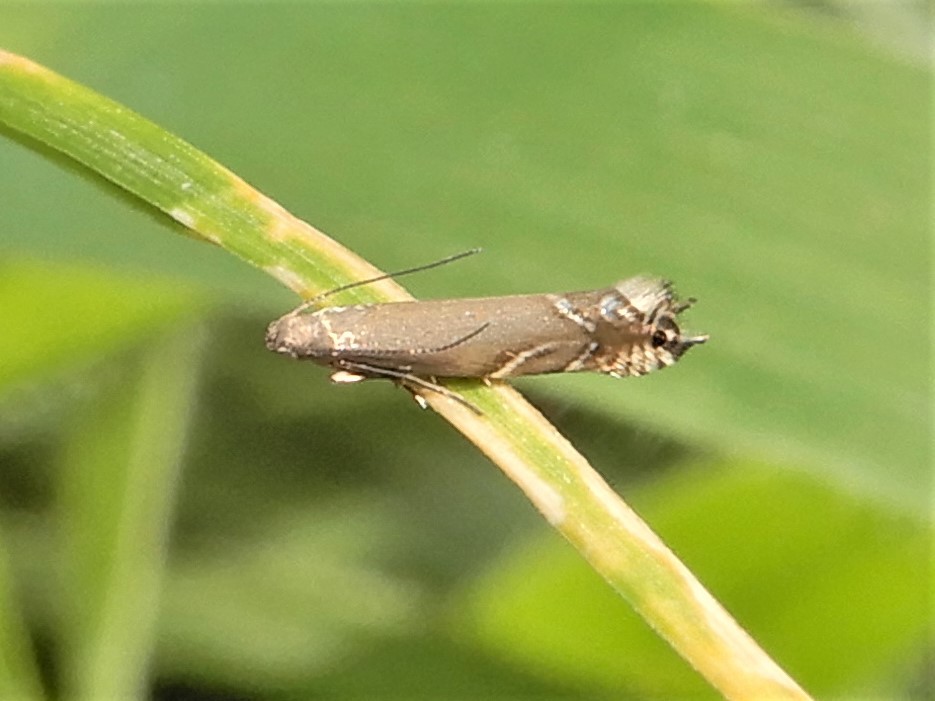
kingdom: Animalia
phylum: Arthropoda
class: Insecta
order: Lepidoptera
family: Glyphipterigidae
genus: Glyphipterix
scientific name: Glyphipterix iocheaera
